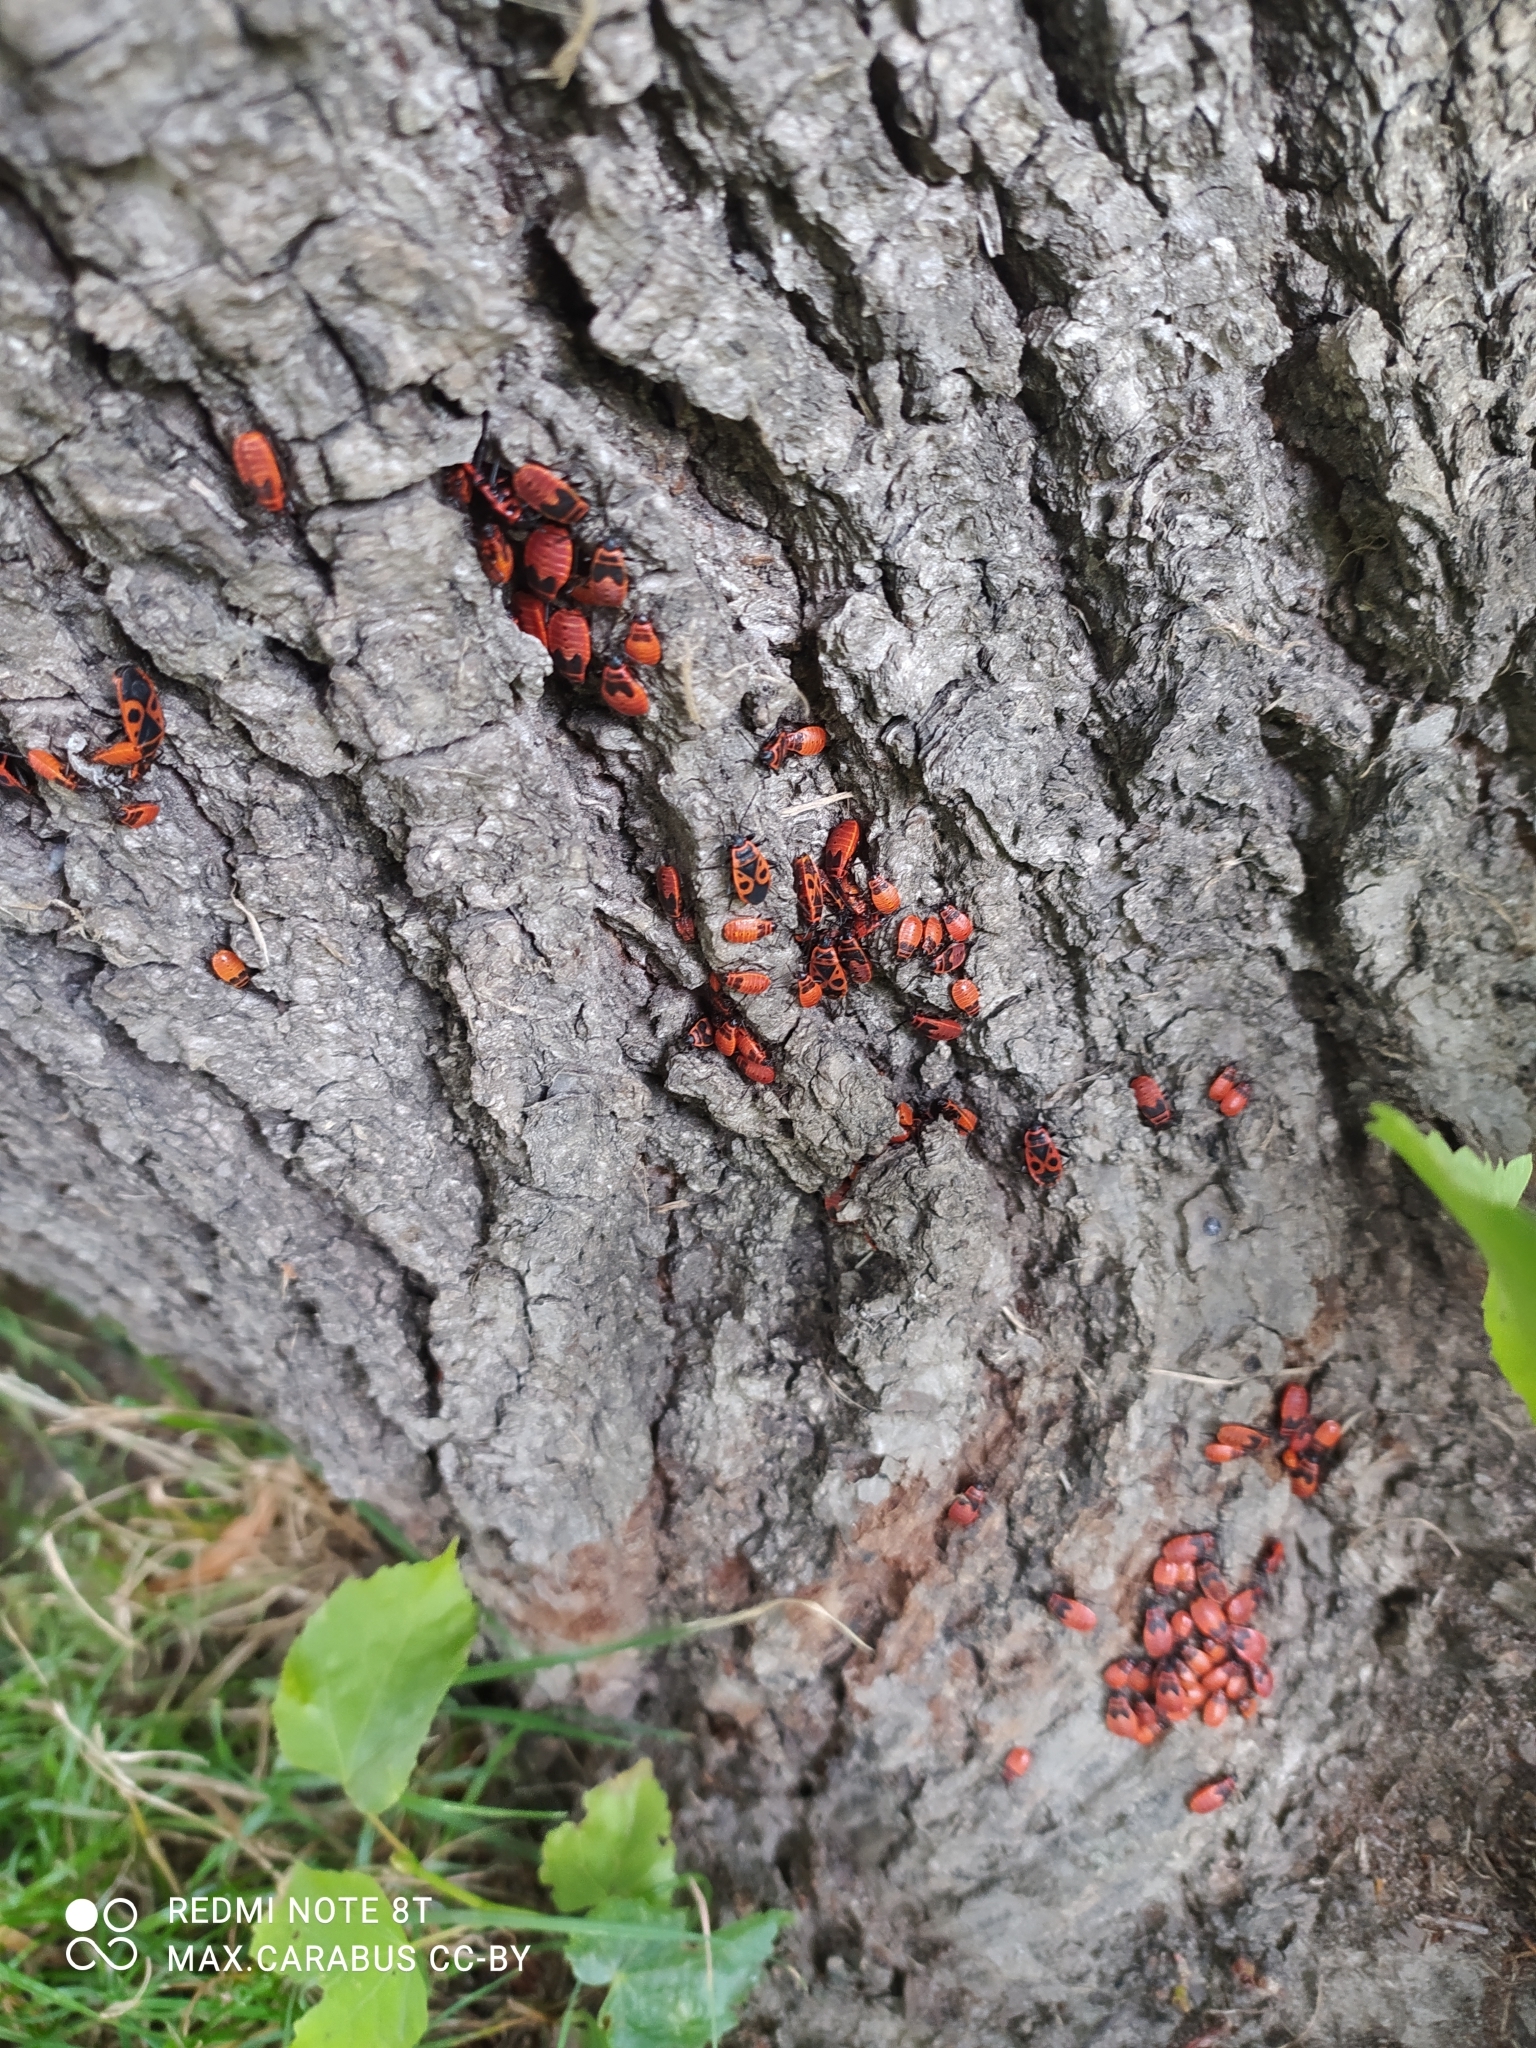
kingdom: Animalia
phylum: Arthropoda
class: Insecta
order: Hemiptera
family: Pyrrhocoridae
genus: Pyrrhocoris
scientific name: Pyrrhocoris apterus
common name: Firebug
